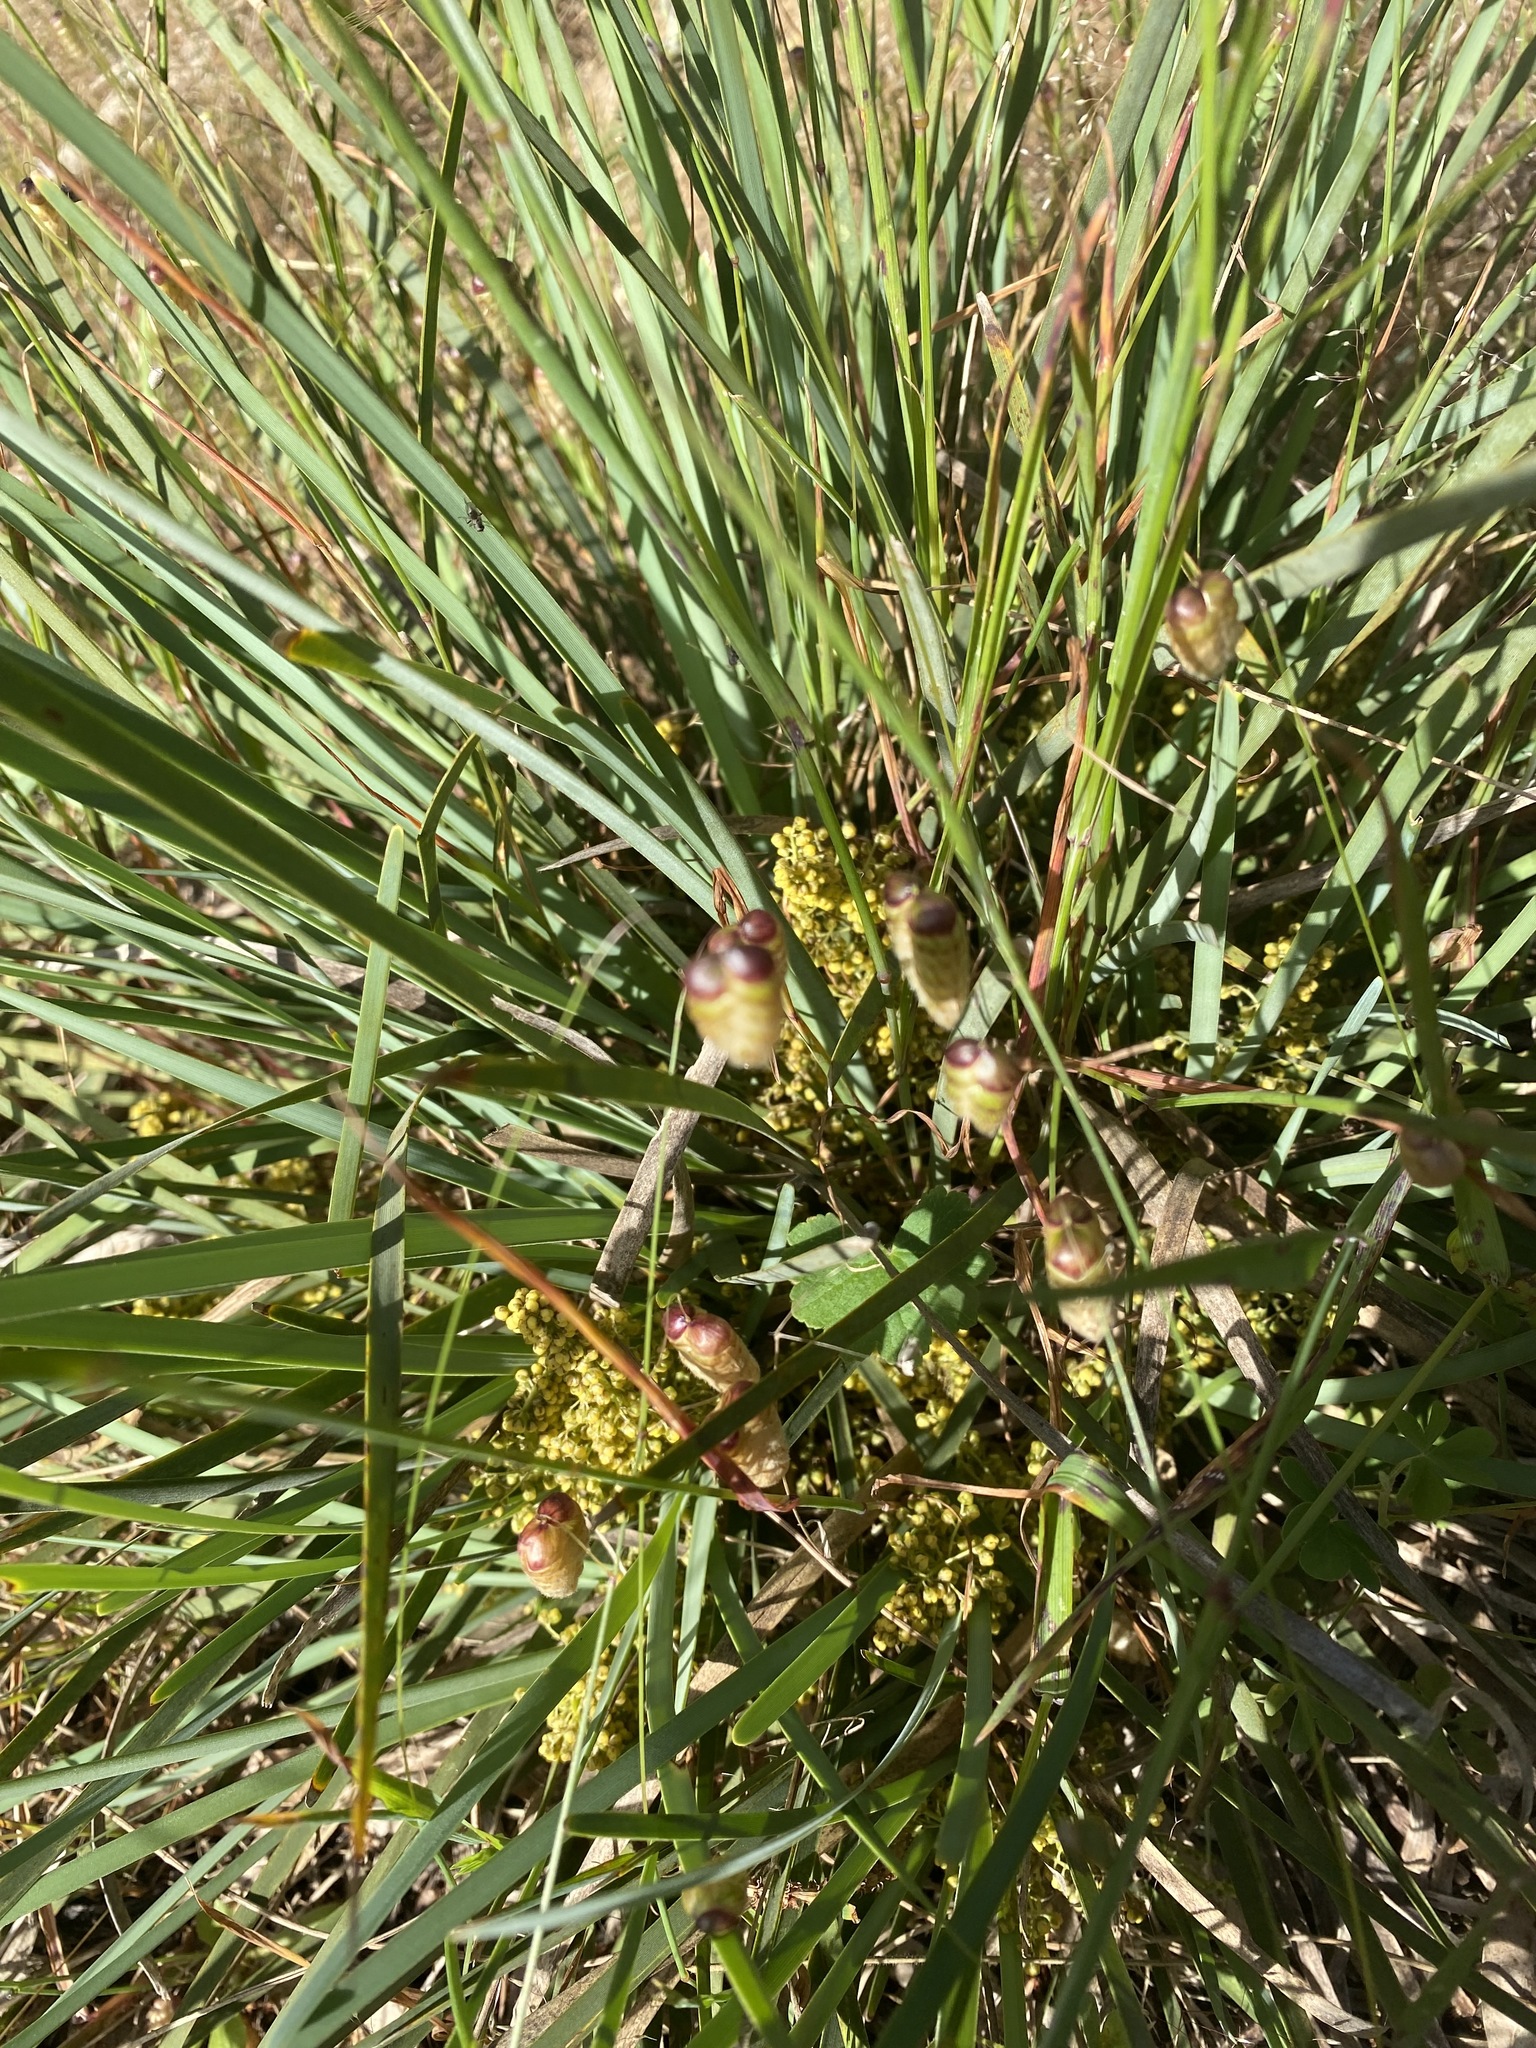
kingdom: Plantae
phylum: Tracheophyta
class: Liliopsida
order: Asparagales
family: Asparagaceae
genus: Lomandra
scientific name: Lomandra filiformis
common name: Wattle mat-rush
